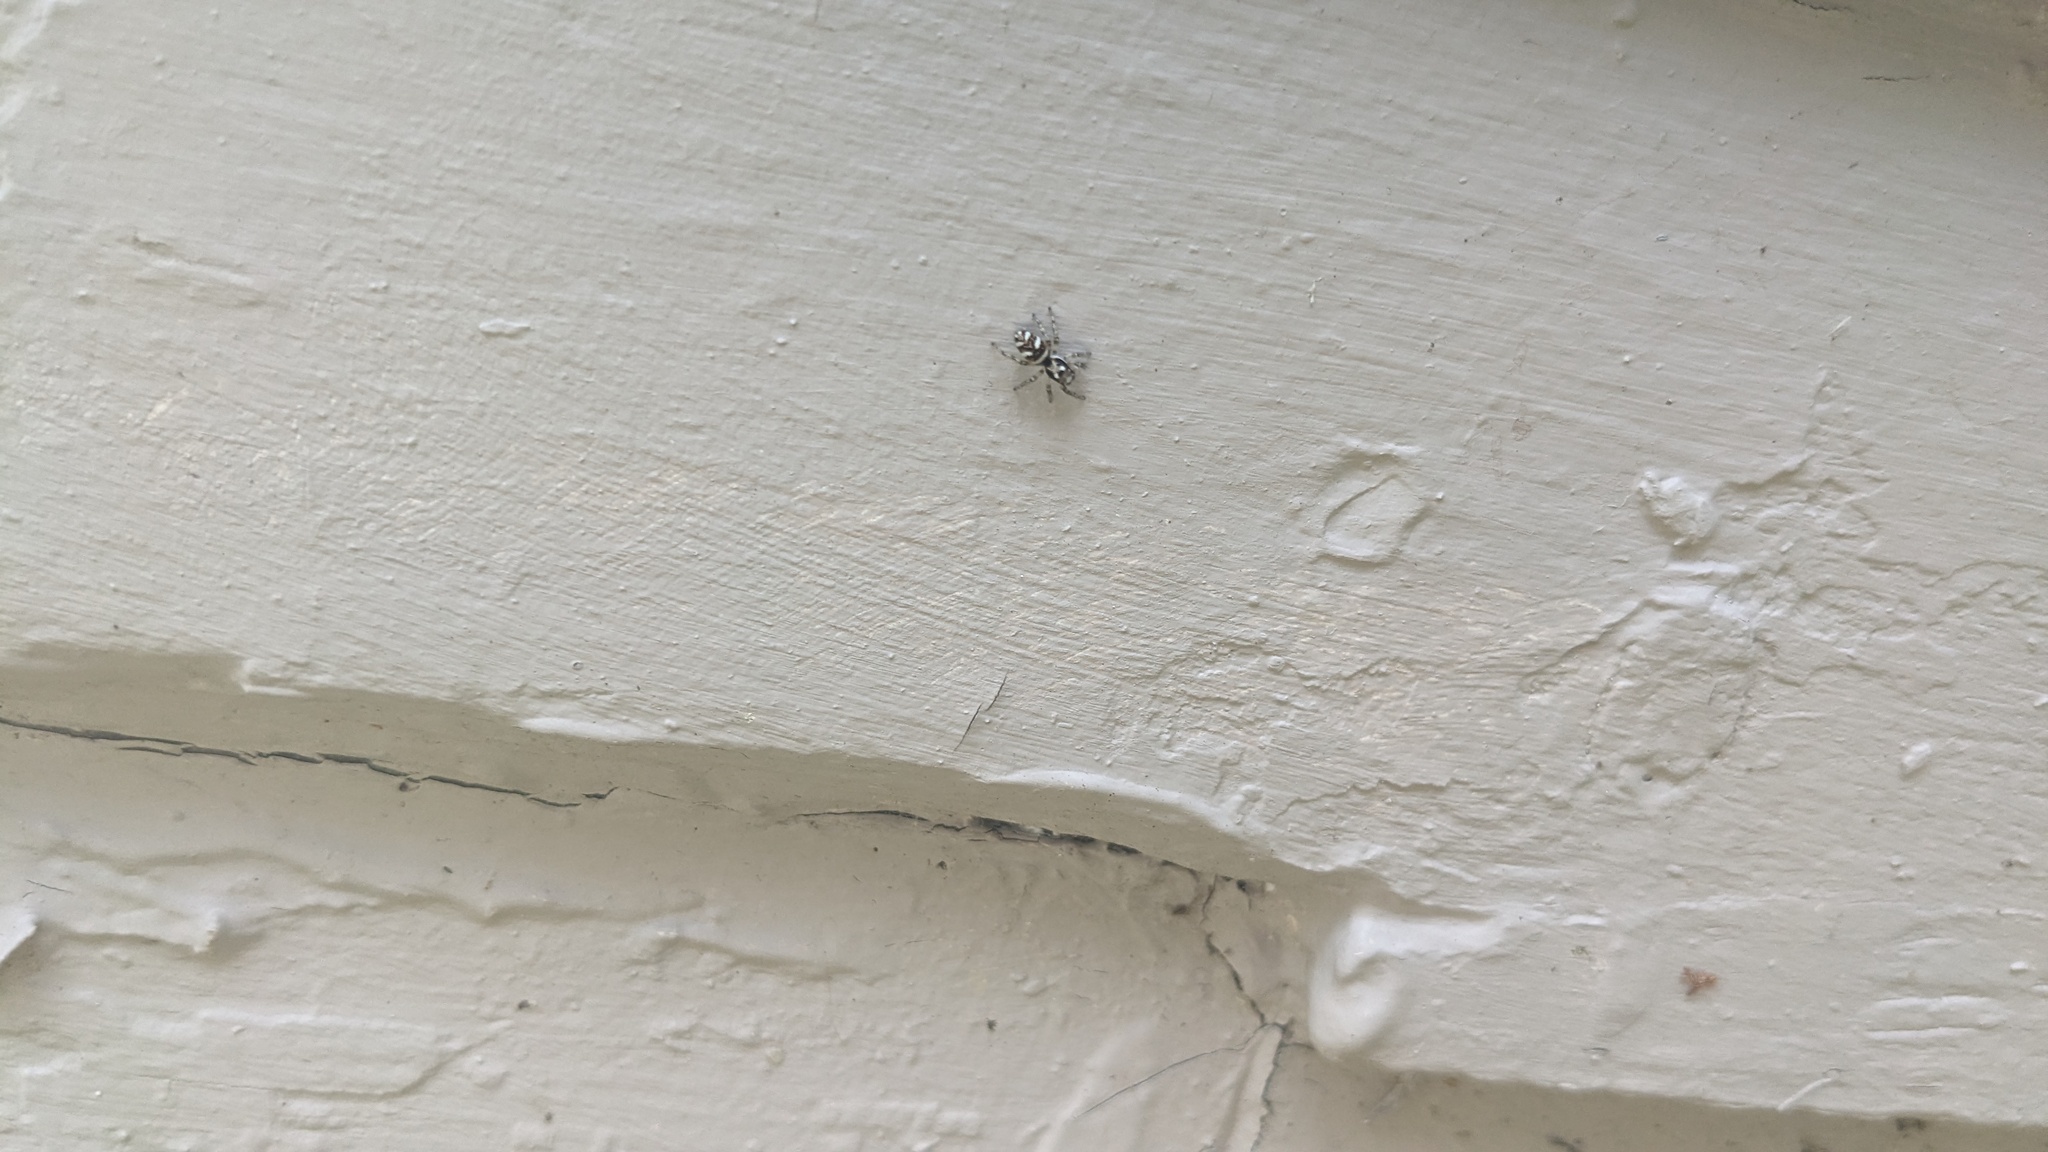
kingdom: Animalia
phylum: Arthropoda
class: Arachnida
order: Araneae
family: Salticidae
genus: Salticus
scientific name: Salticus scenicus
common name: Zebra jumper
